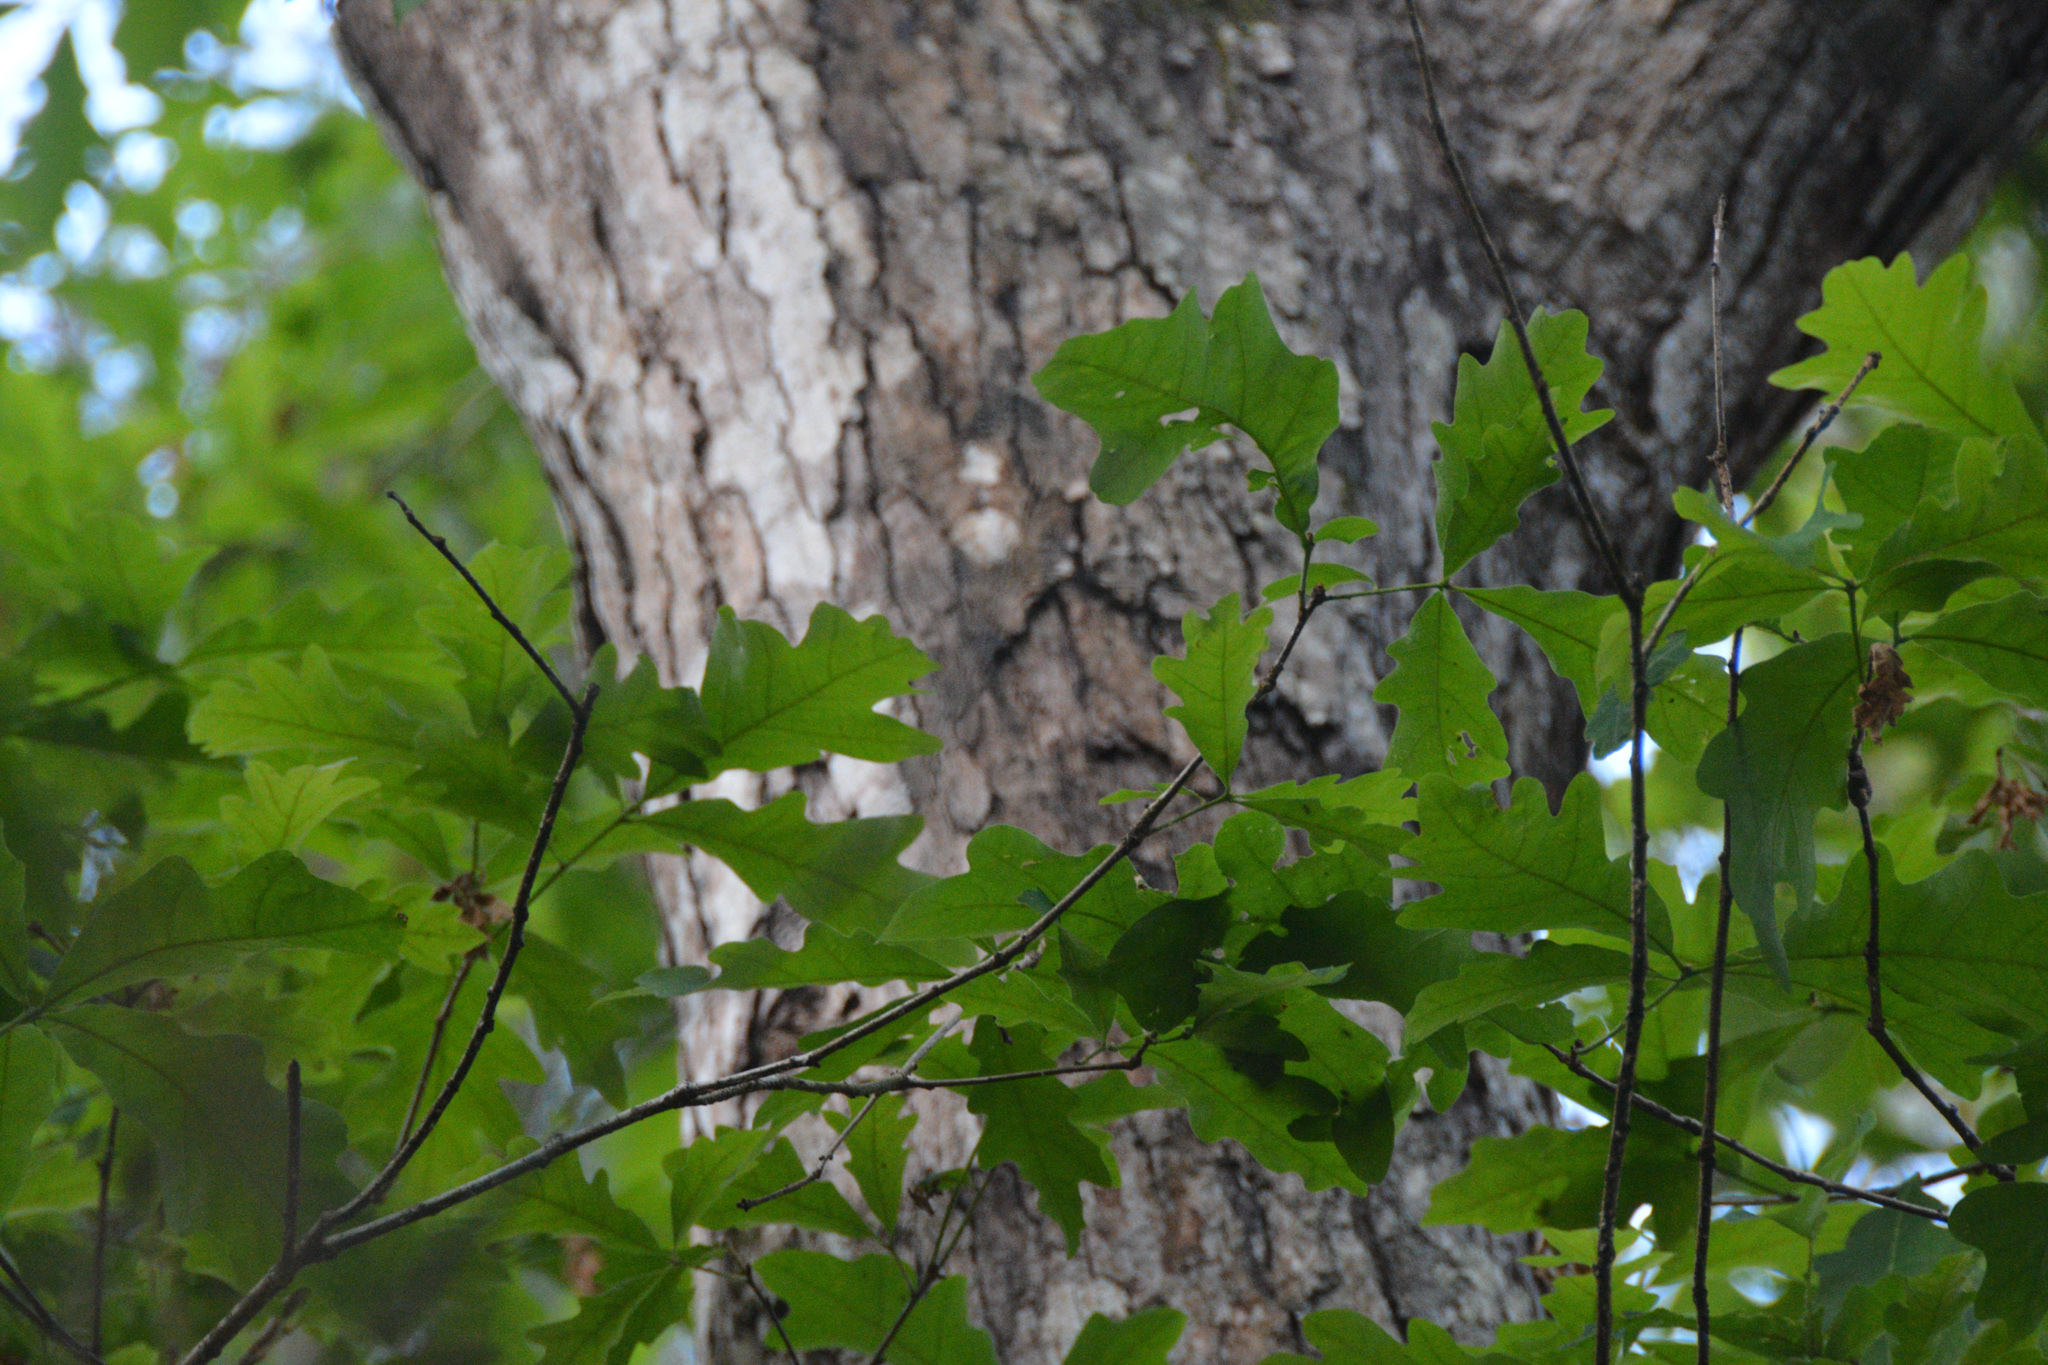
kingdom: Plantae
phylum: Tracheophyta
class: Magnoliopsida
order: Fagales
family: Fagaceae
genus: Quercus
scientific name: Quercus alba
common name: White oak
